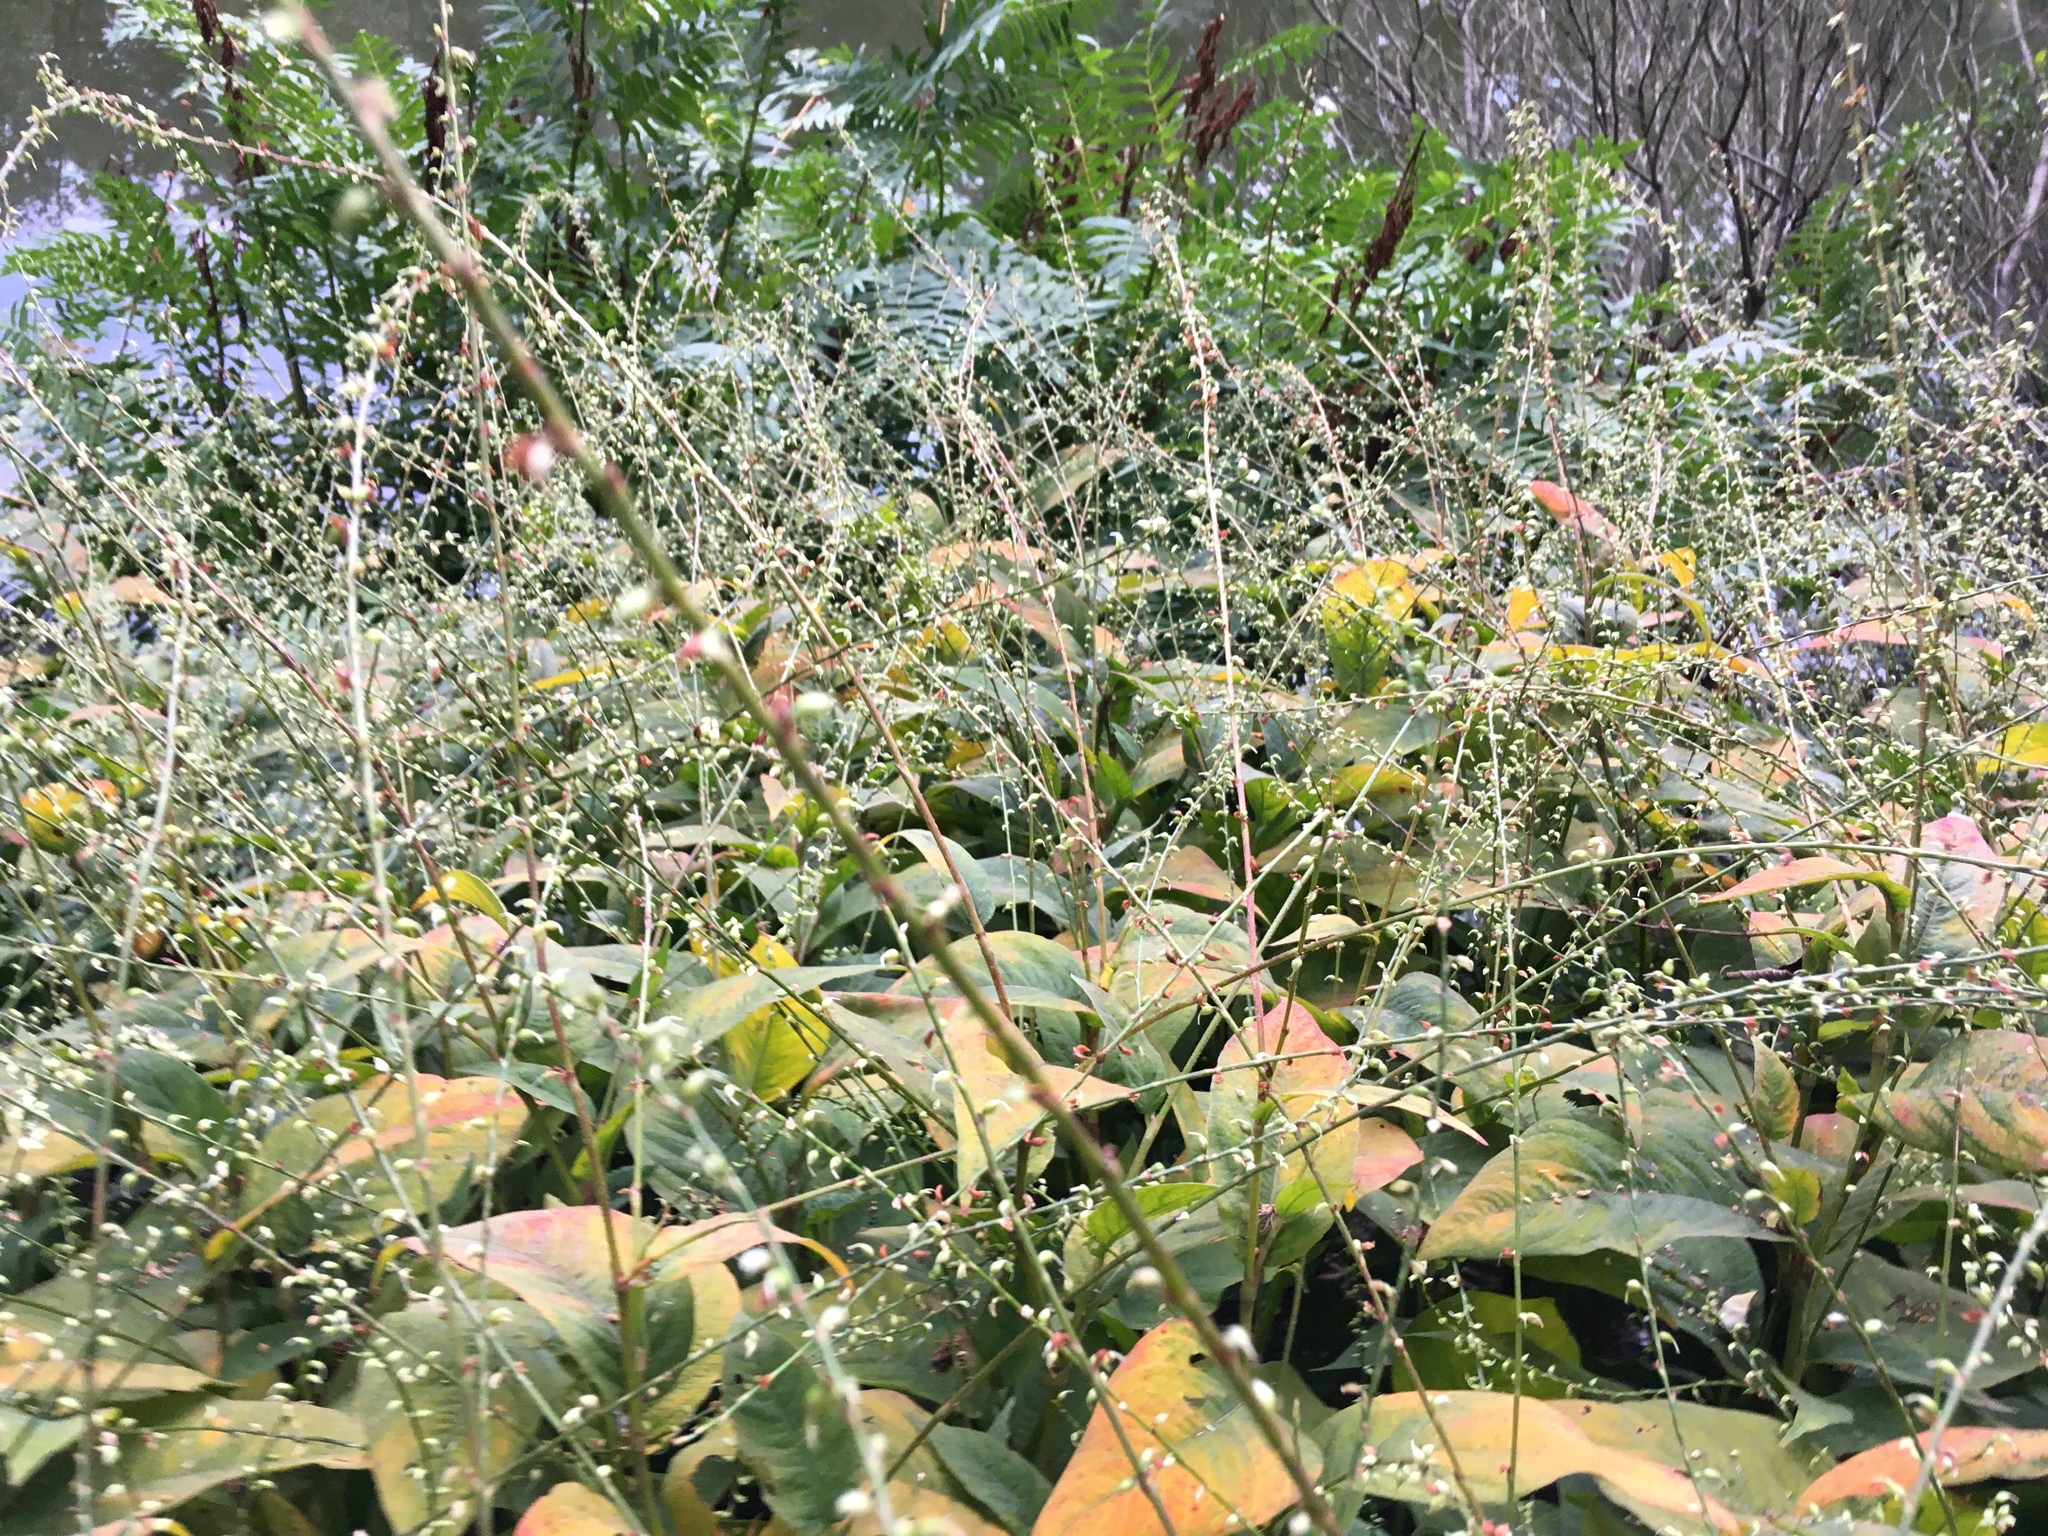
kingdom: Plantae
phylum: Tracheophyta
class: Magnoliopsida
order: Caryophyllales
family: Polygonaceae
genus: Persicaria
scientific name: Persicaria virginiana
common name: Jumpseed
